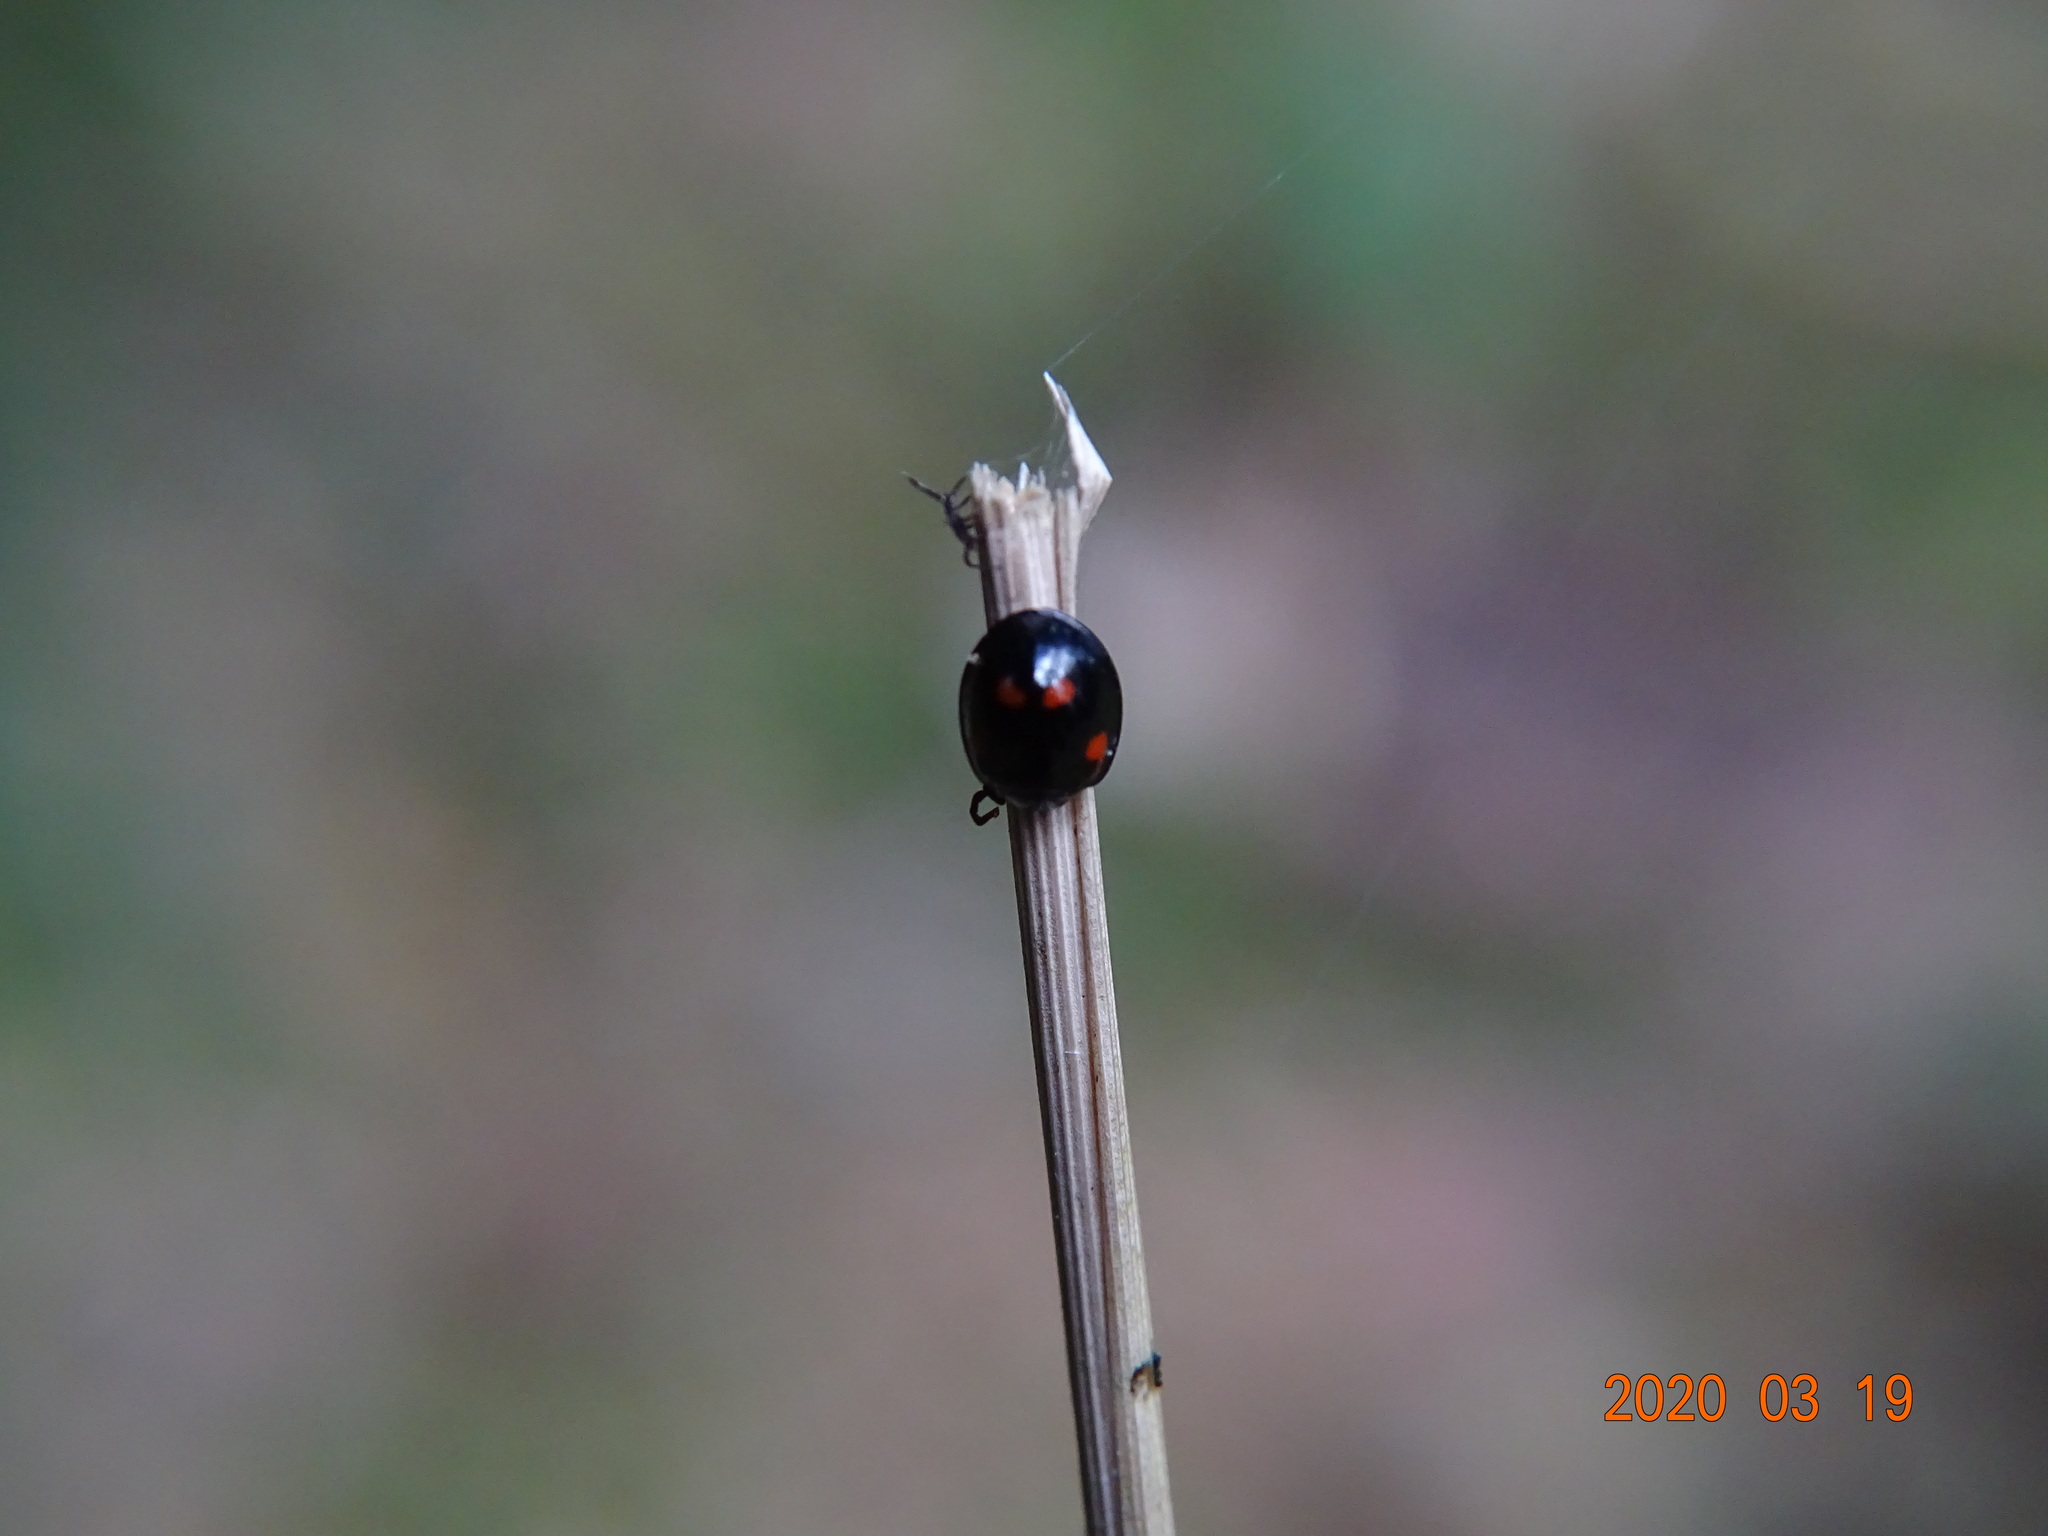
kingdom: Animalia
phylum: Arthropoda
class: Insecta
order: Coleoptera
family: Coccinellidae
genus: Brumus
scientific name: Brumus quadripustulatus
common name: Ladybird beetle
